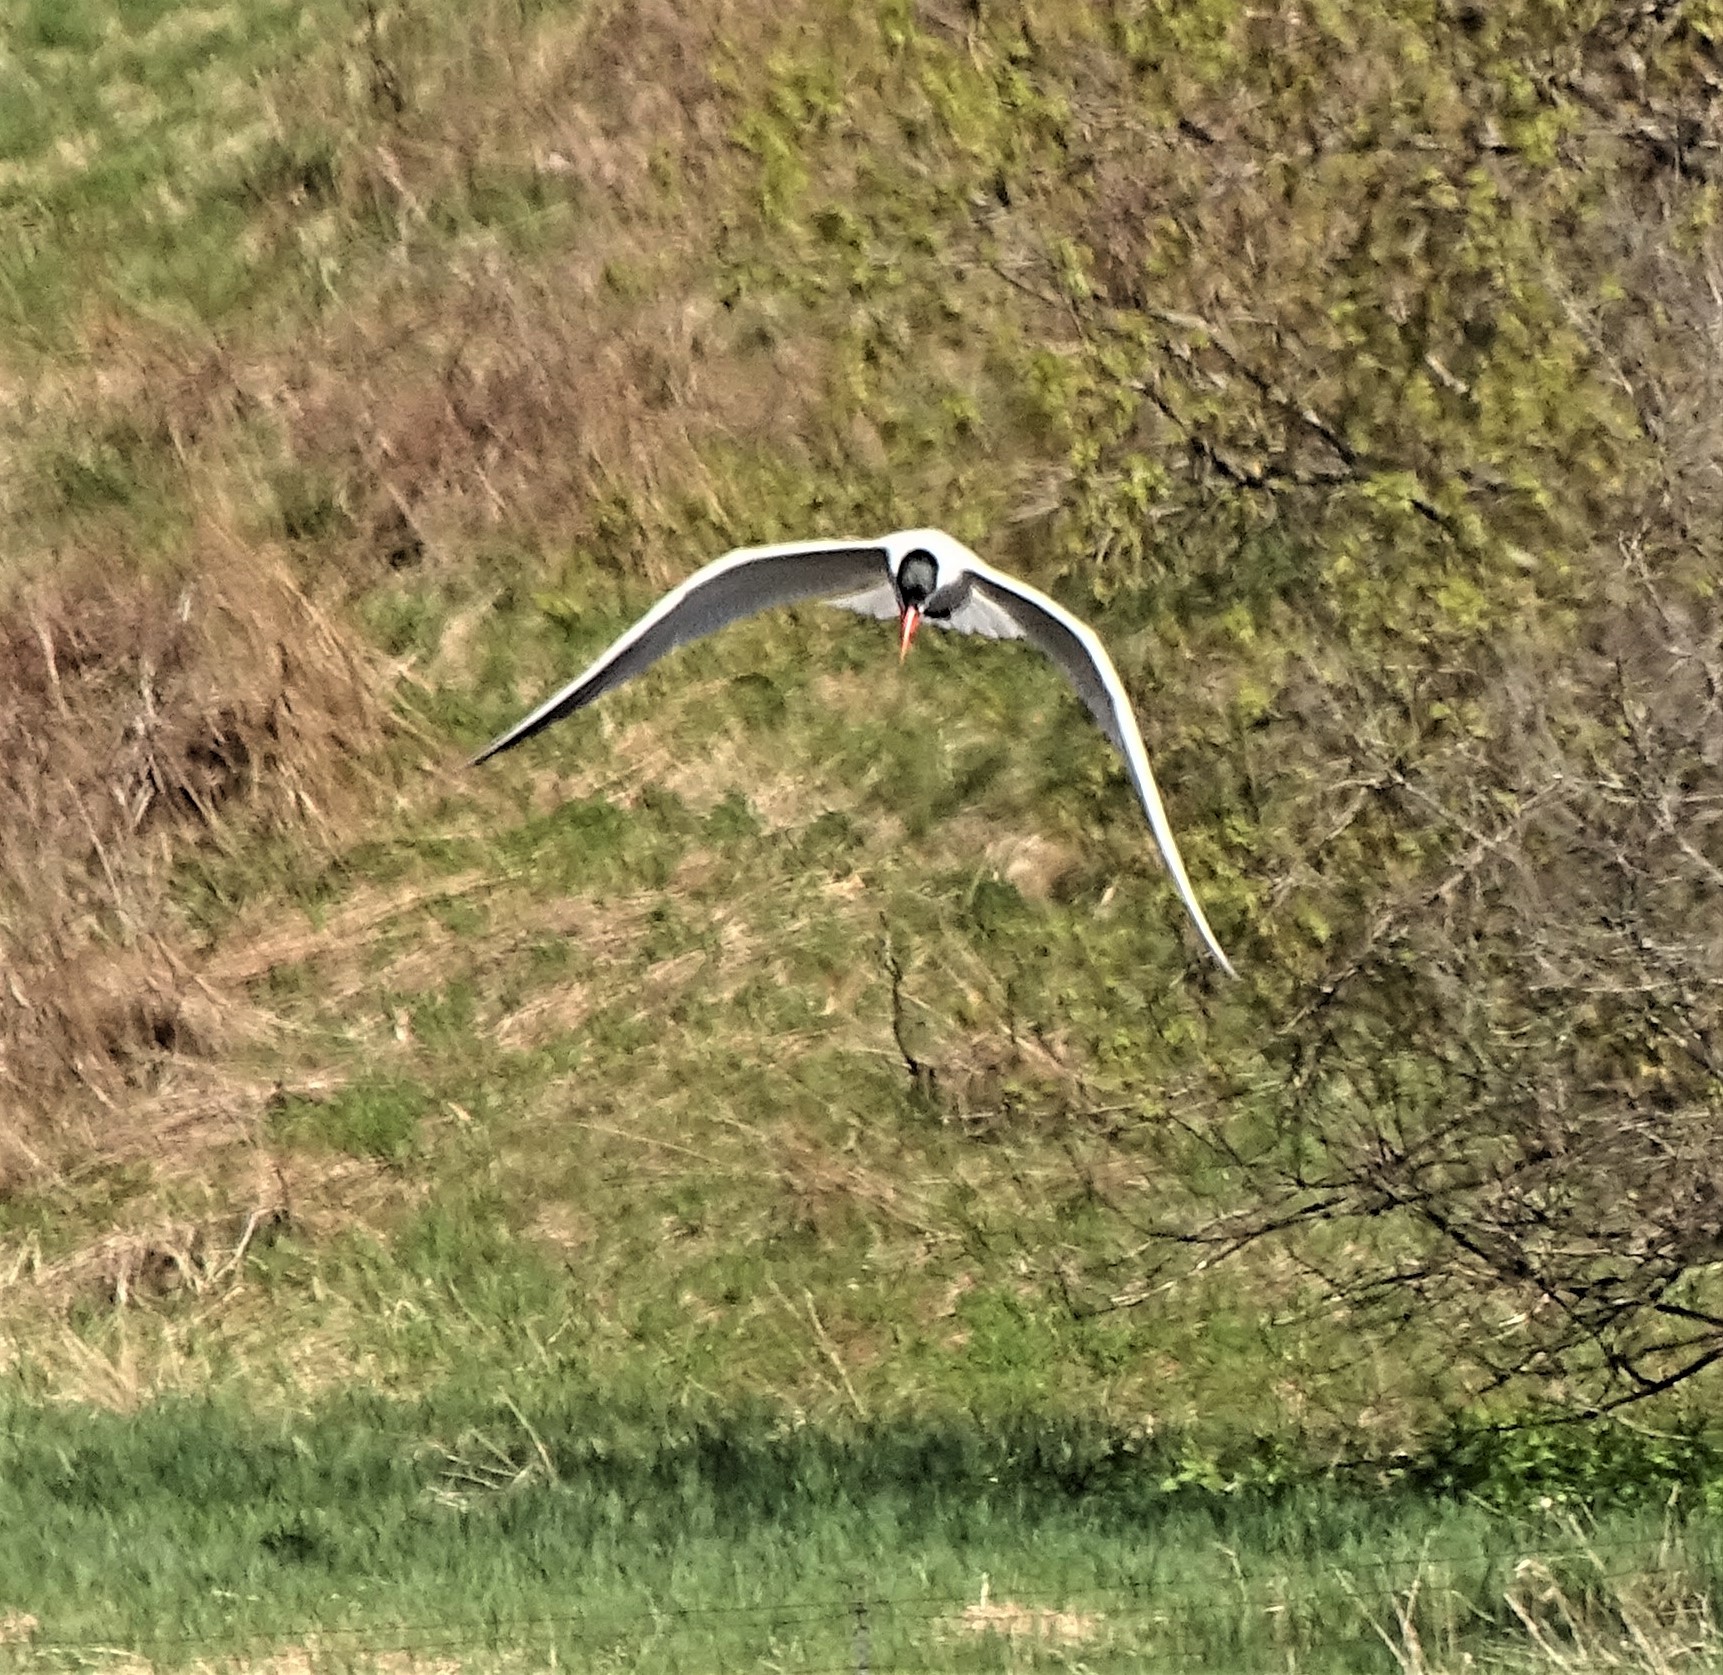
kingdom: Animalia
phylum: Chordata
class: Aves
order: Charadriiformes
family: Laridae
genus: Hydroprogne
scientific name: Hydroprogne caspia
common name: Caspian tern
